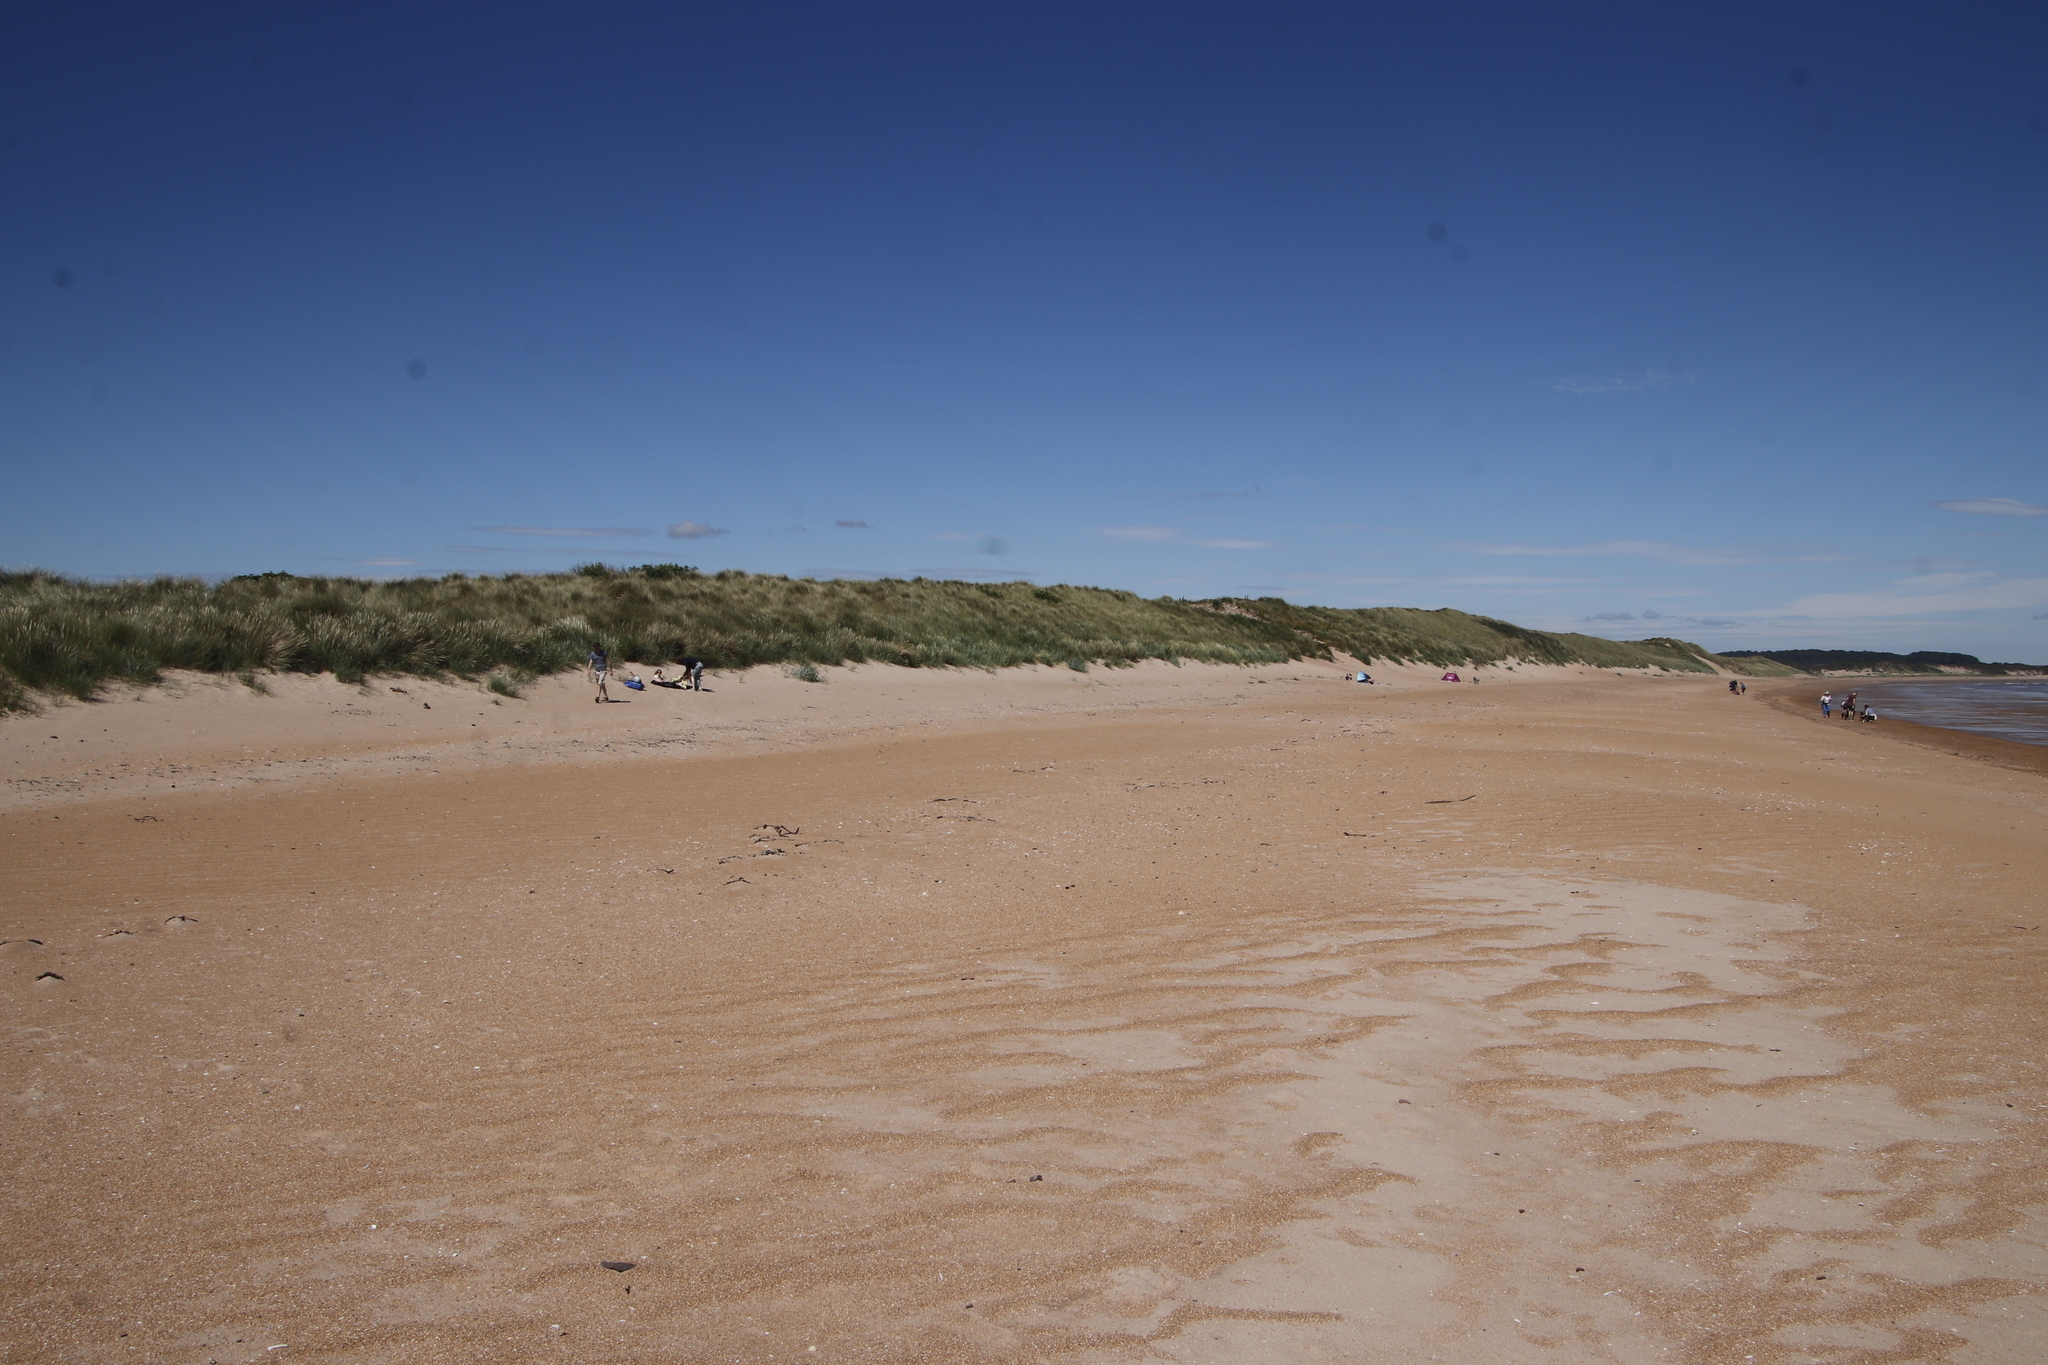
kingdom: Plantae
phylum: Tracheophyta
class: Liliopsida
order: Poales
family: Poaceae
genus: Calamagrostis
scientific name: Calamagrostis arenaria
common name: European beachgrass
